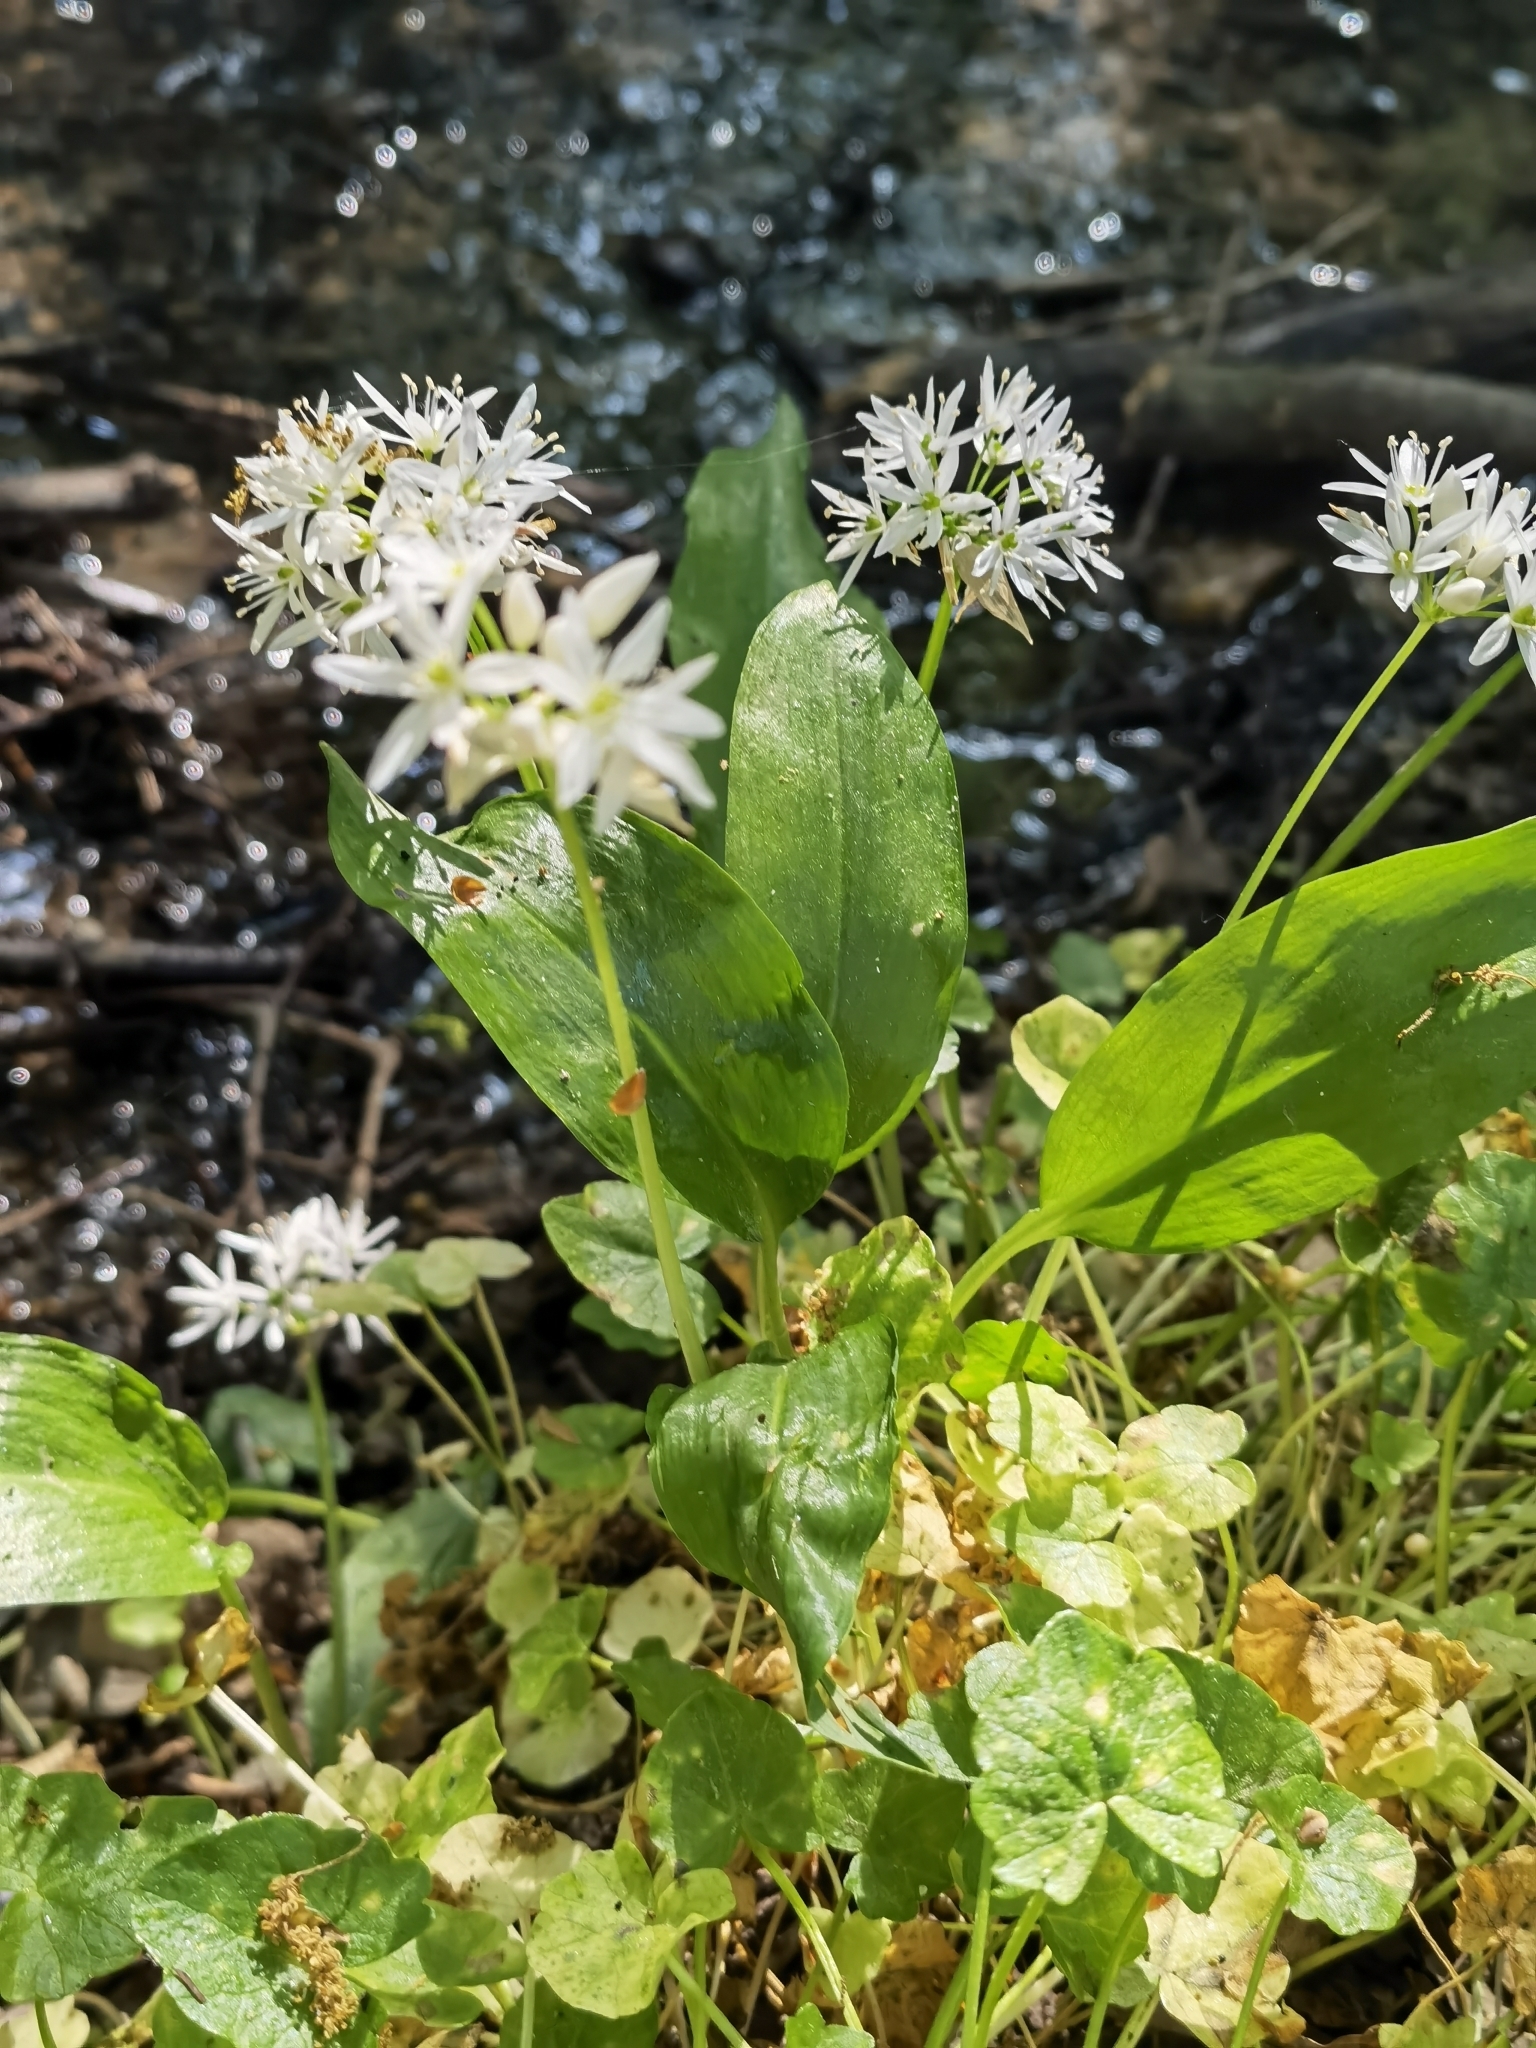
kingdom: Plantae
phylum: Tracheophyta
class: Liliopsida
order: Asparagales
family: Amaryllidaceae
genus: Allium
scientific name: Allium ursinum
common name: Ramsons
